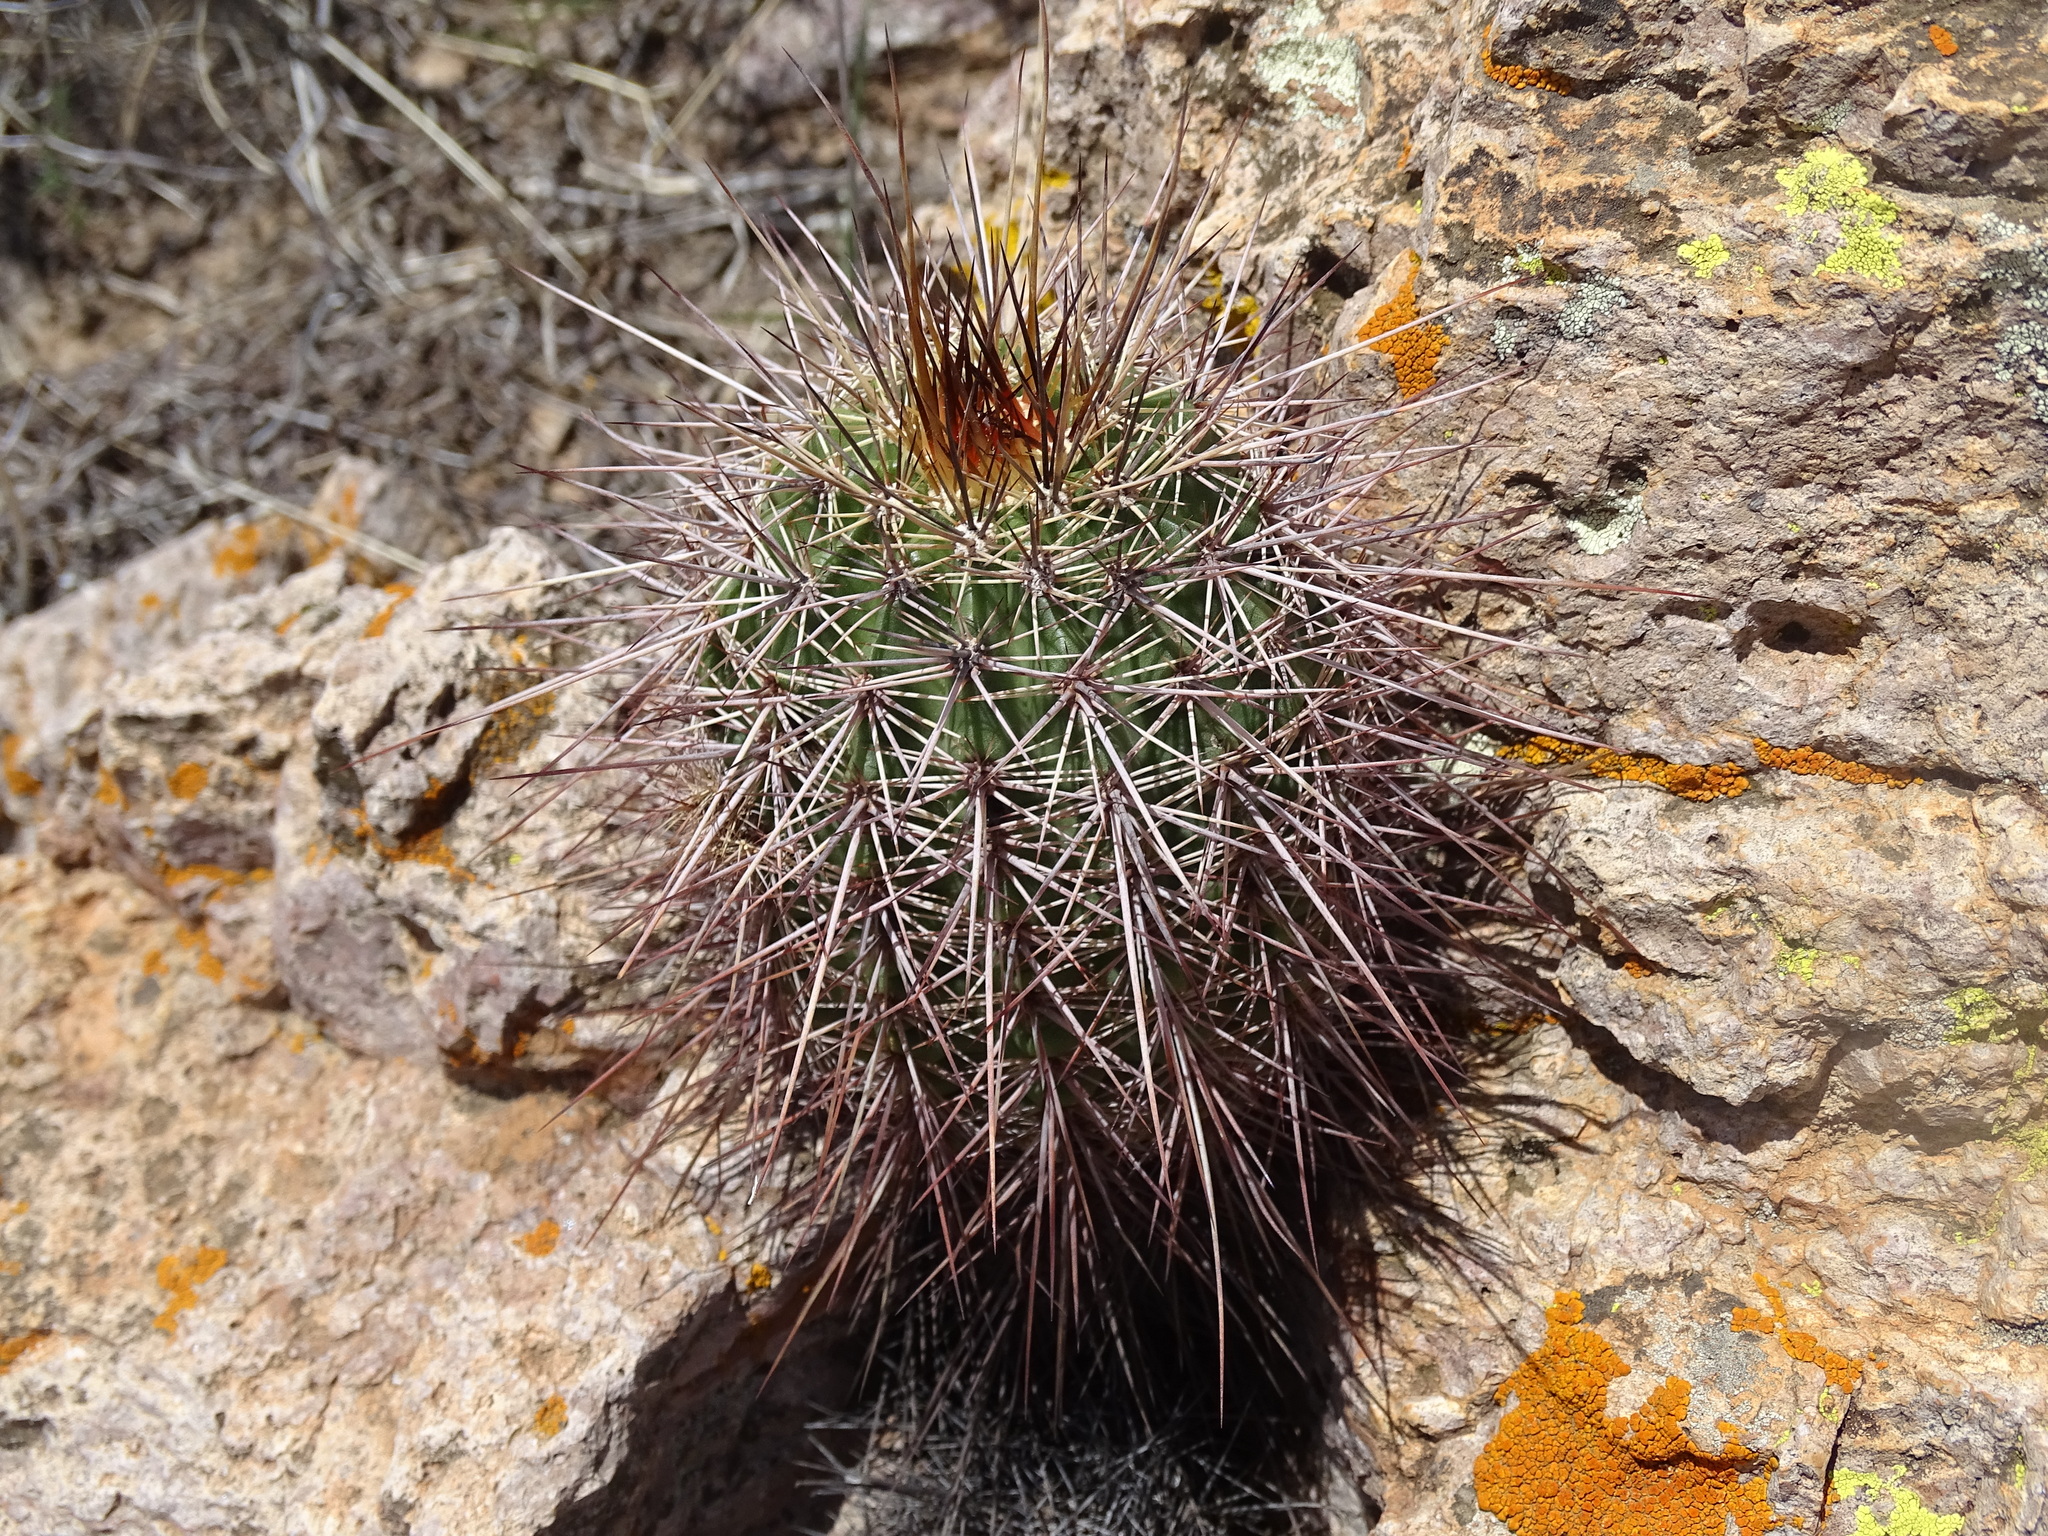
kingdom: Plantae
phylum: Tracheophyta
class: Magnoliopsida
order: Caryophyllales
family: Cactaceae
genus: Echinocereus
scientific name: Echinocereus acifer
